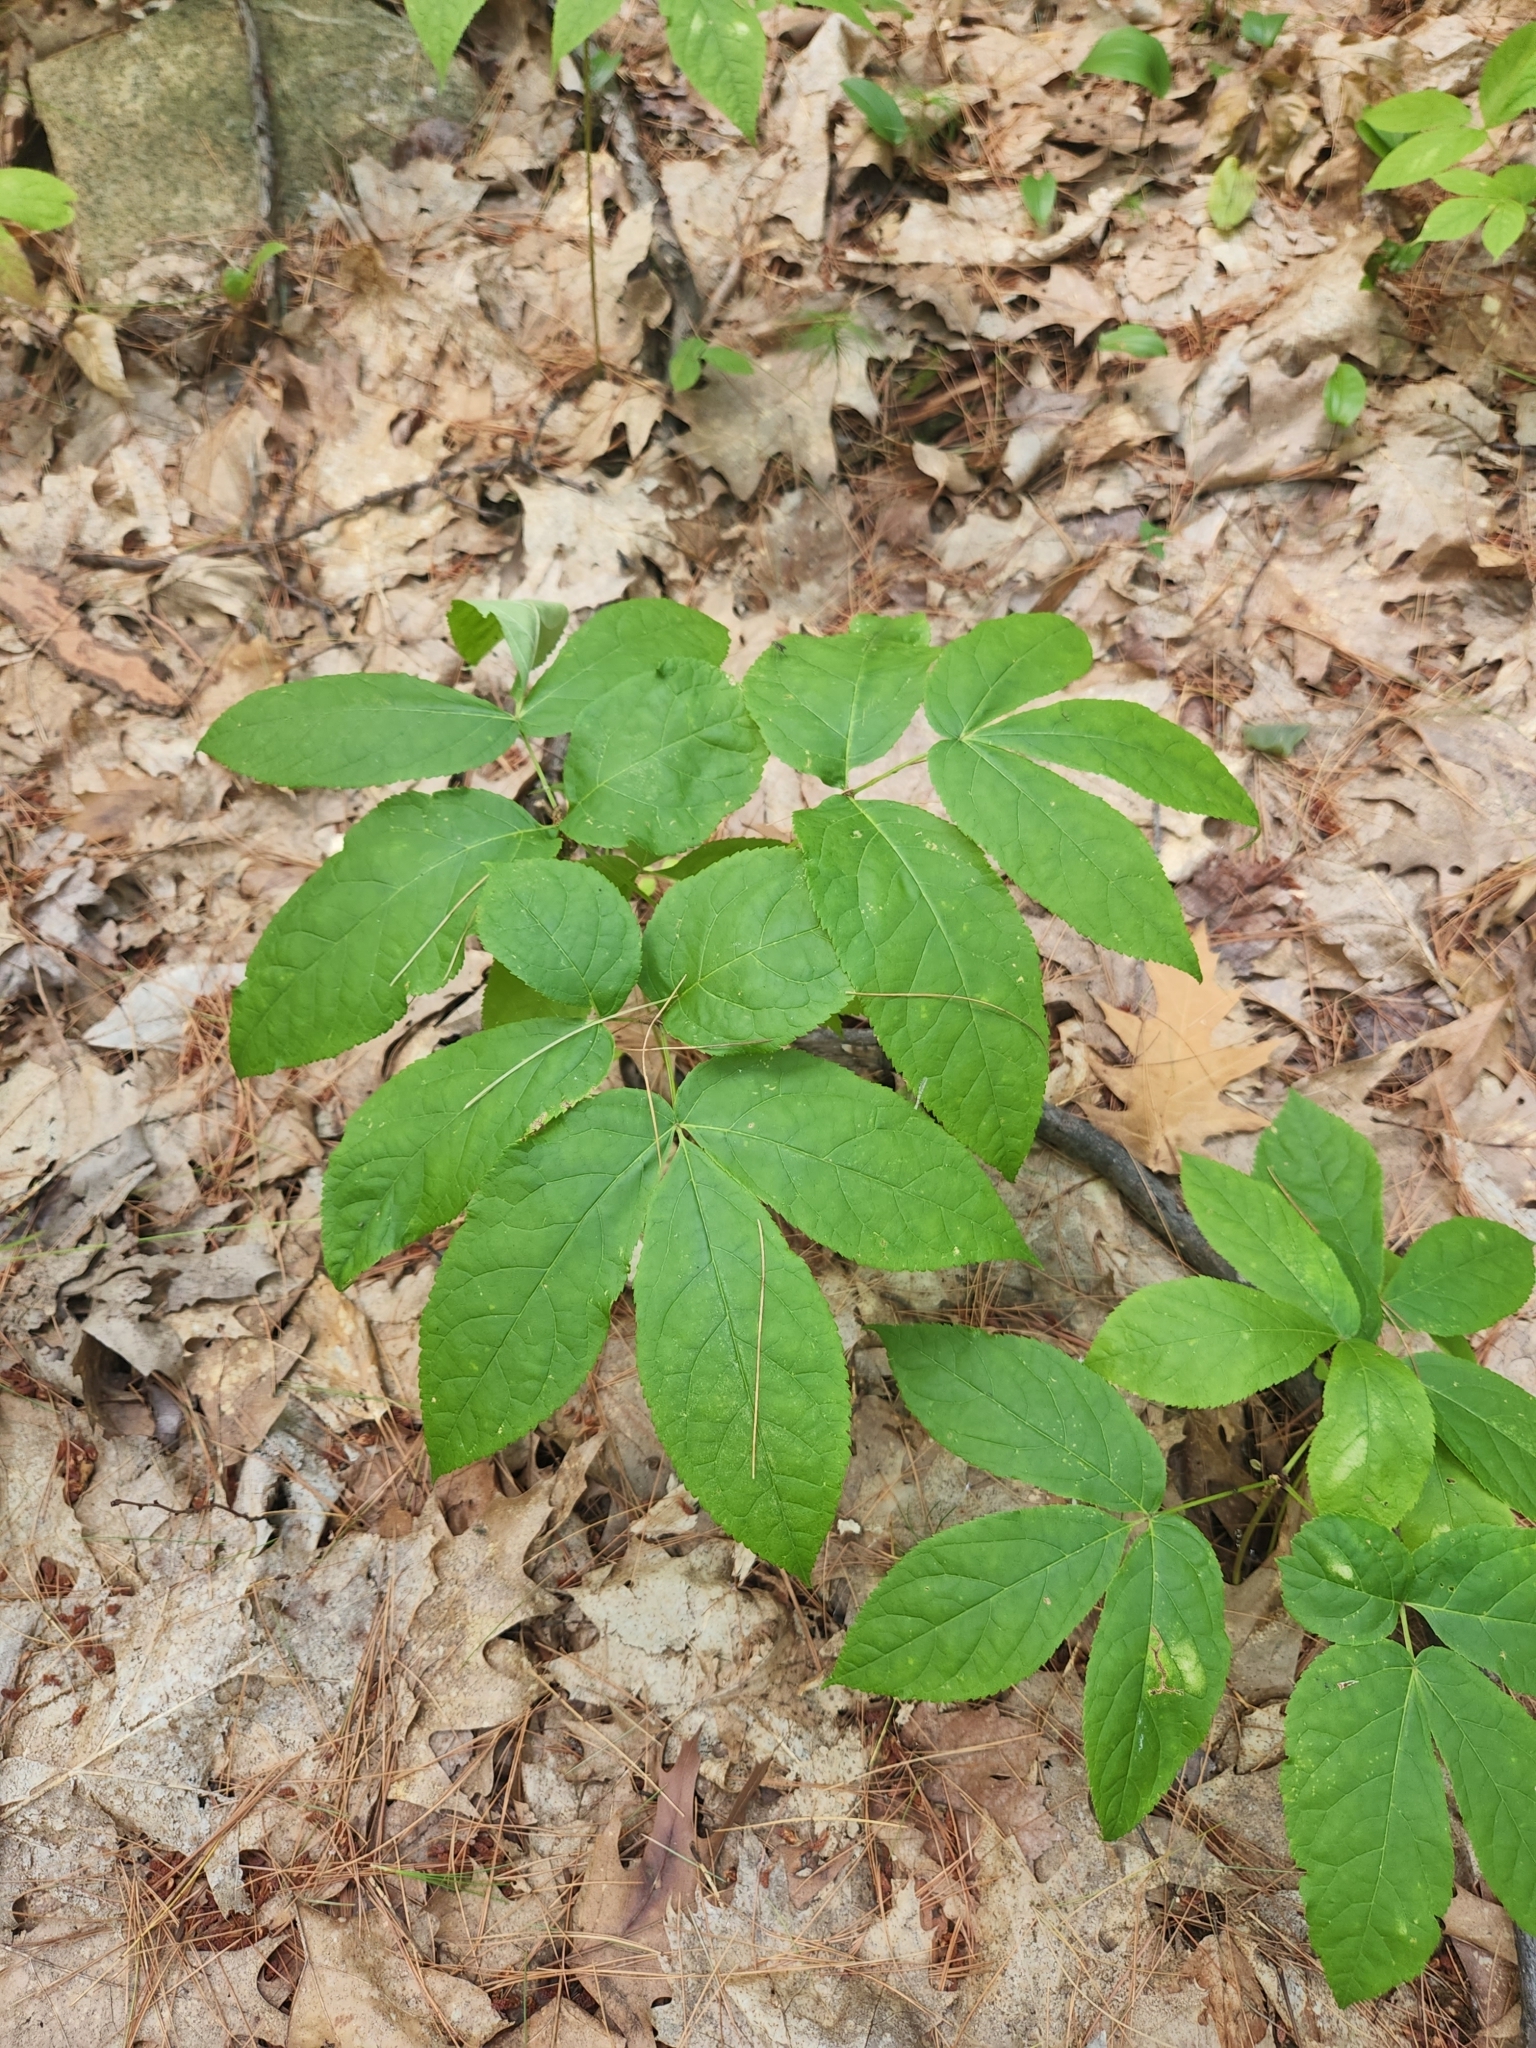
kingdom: Plantae
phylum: Tracheophyta
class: Magnoliopsida
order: Apiales
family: Araliaceae
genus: Aralia
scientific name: Aralia nudicaulis
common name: Wild sarsaparilla
